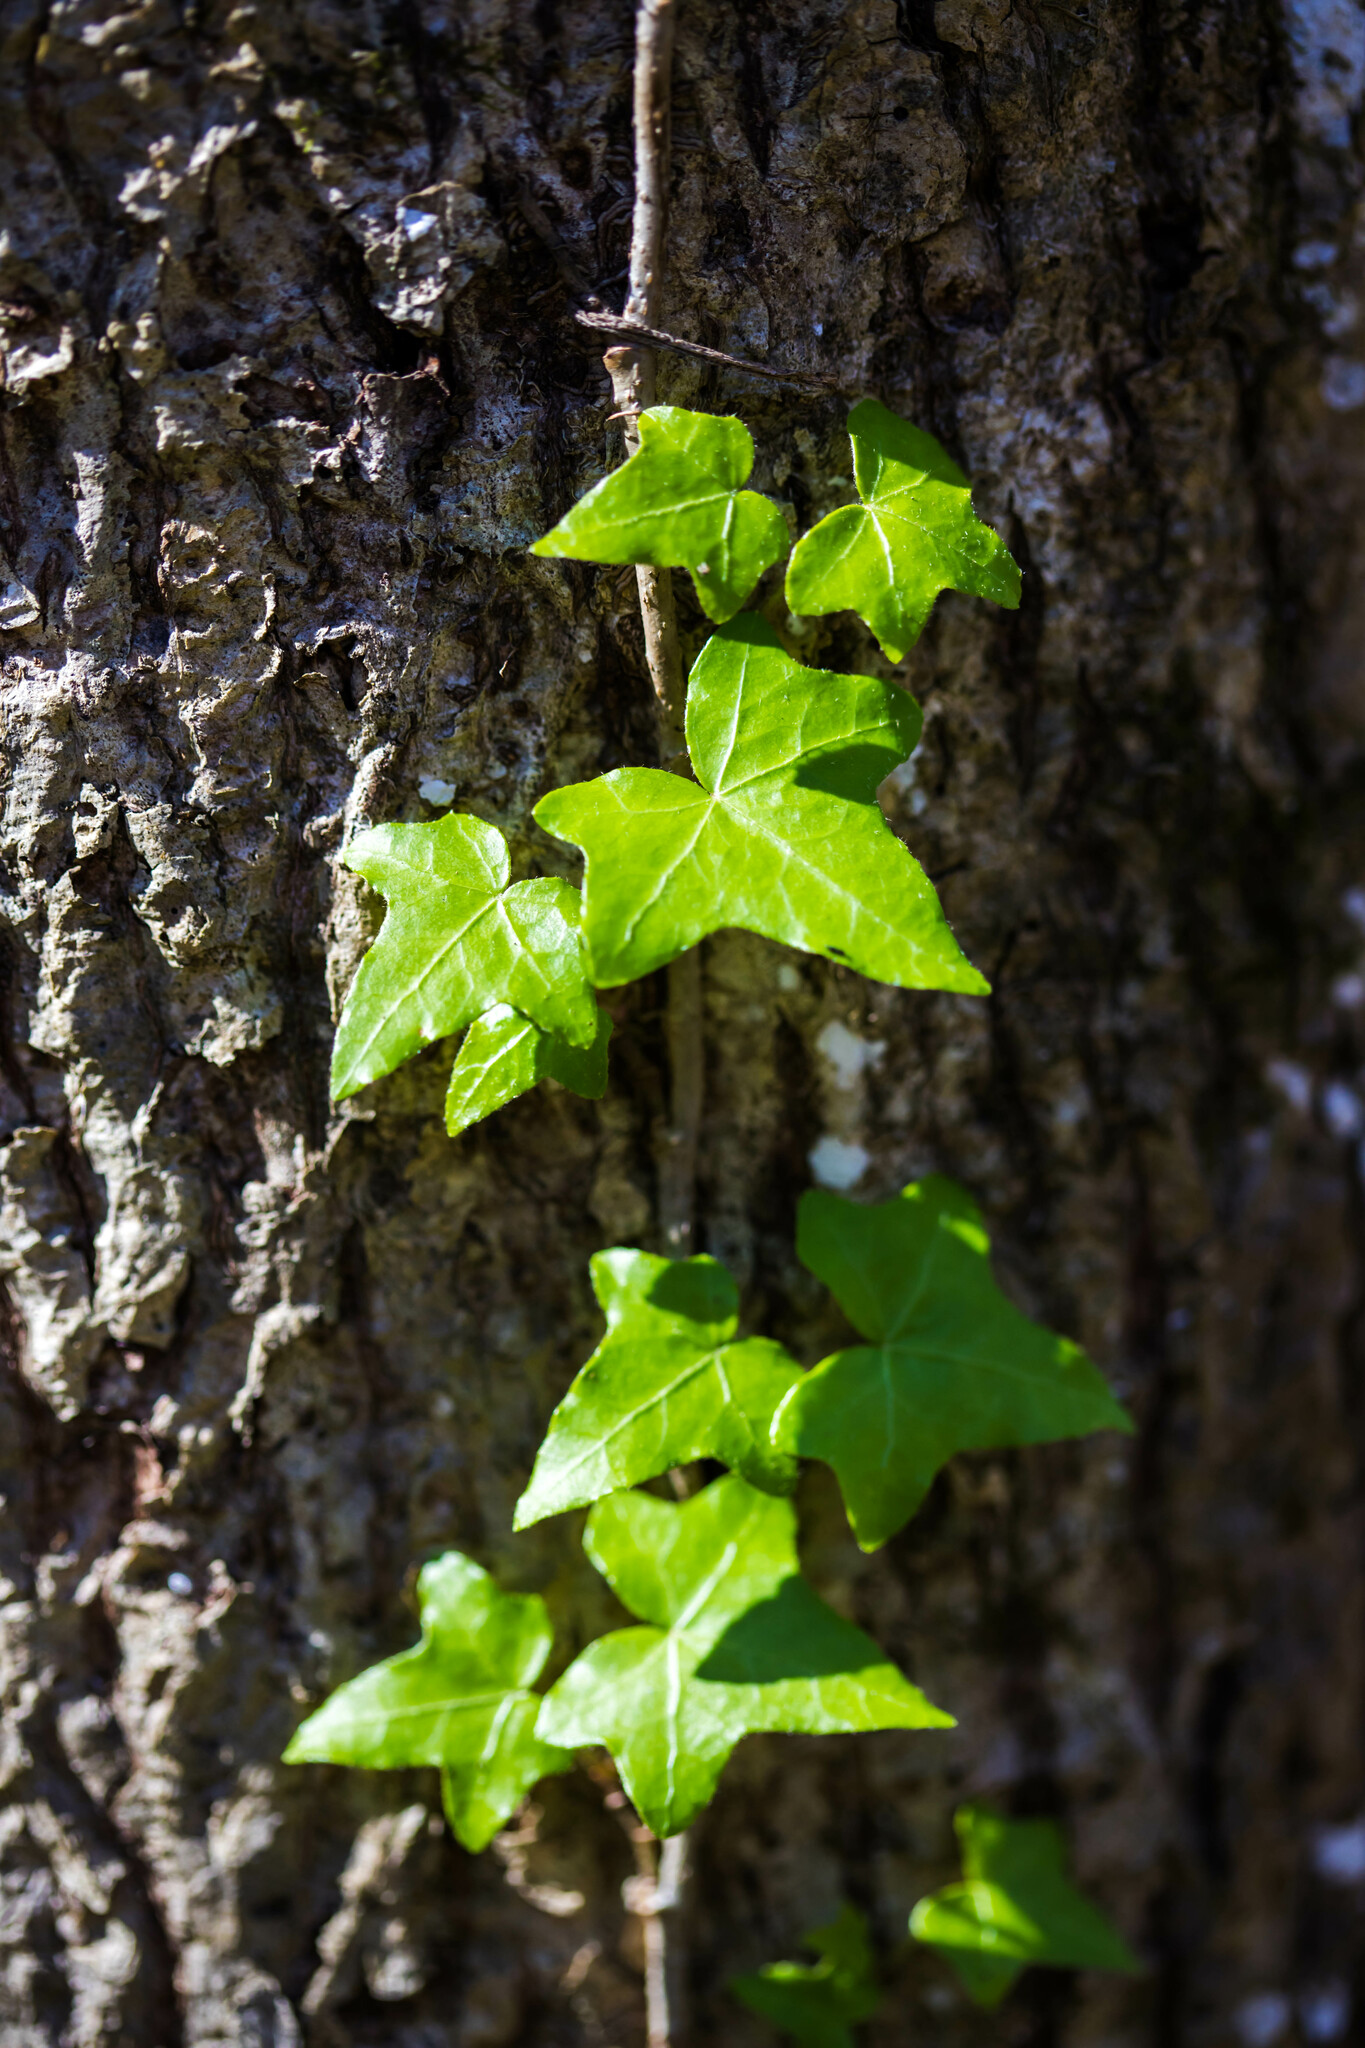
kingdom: Plantae
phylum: Tracheophyta
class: Magnoliopsida
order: Apiales
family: Araliaceae
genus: Hedera
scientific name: Hedera helix
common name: Ivy
